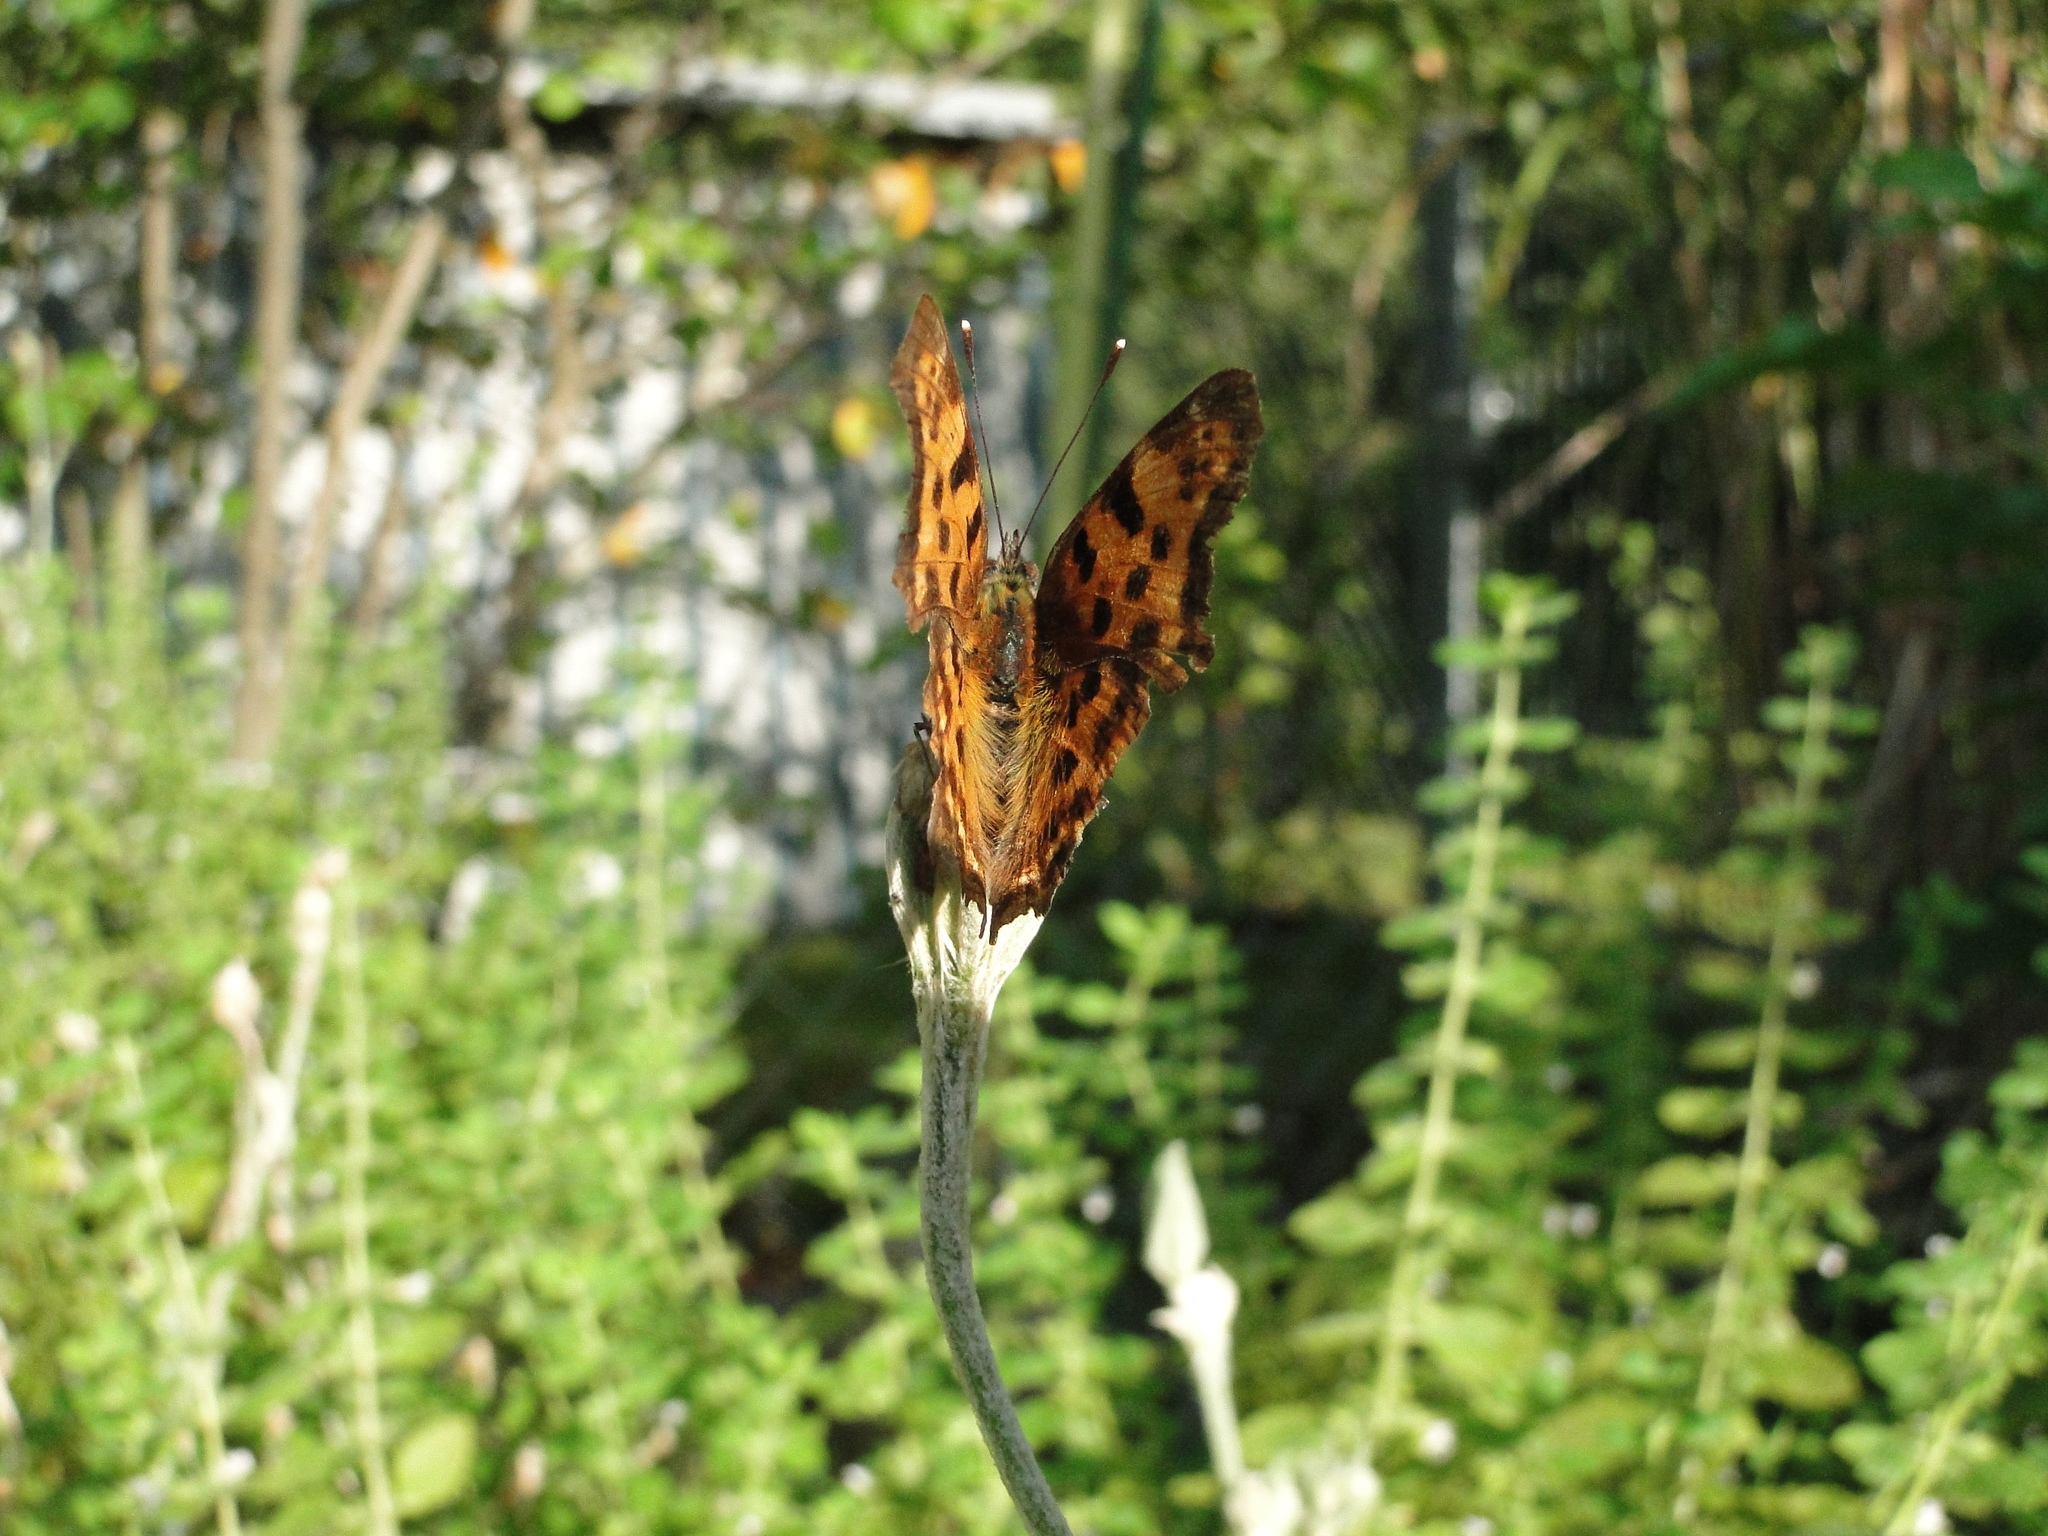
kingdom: Animalia
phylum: Arthropoda
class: Insecta
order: Lepidoptera
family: Nymphalidae
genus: Polygonia
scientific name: Polygonia c-album
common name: Comma
